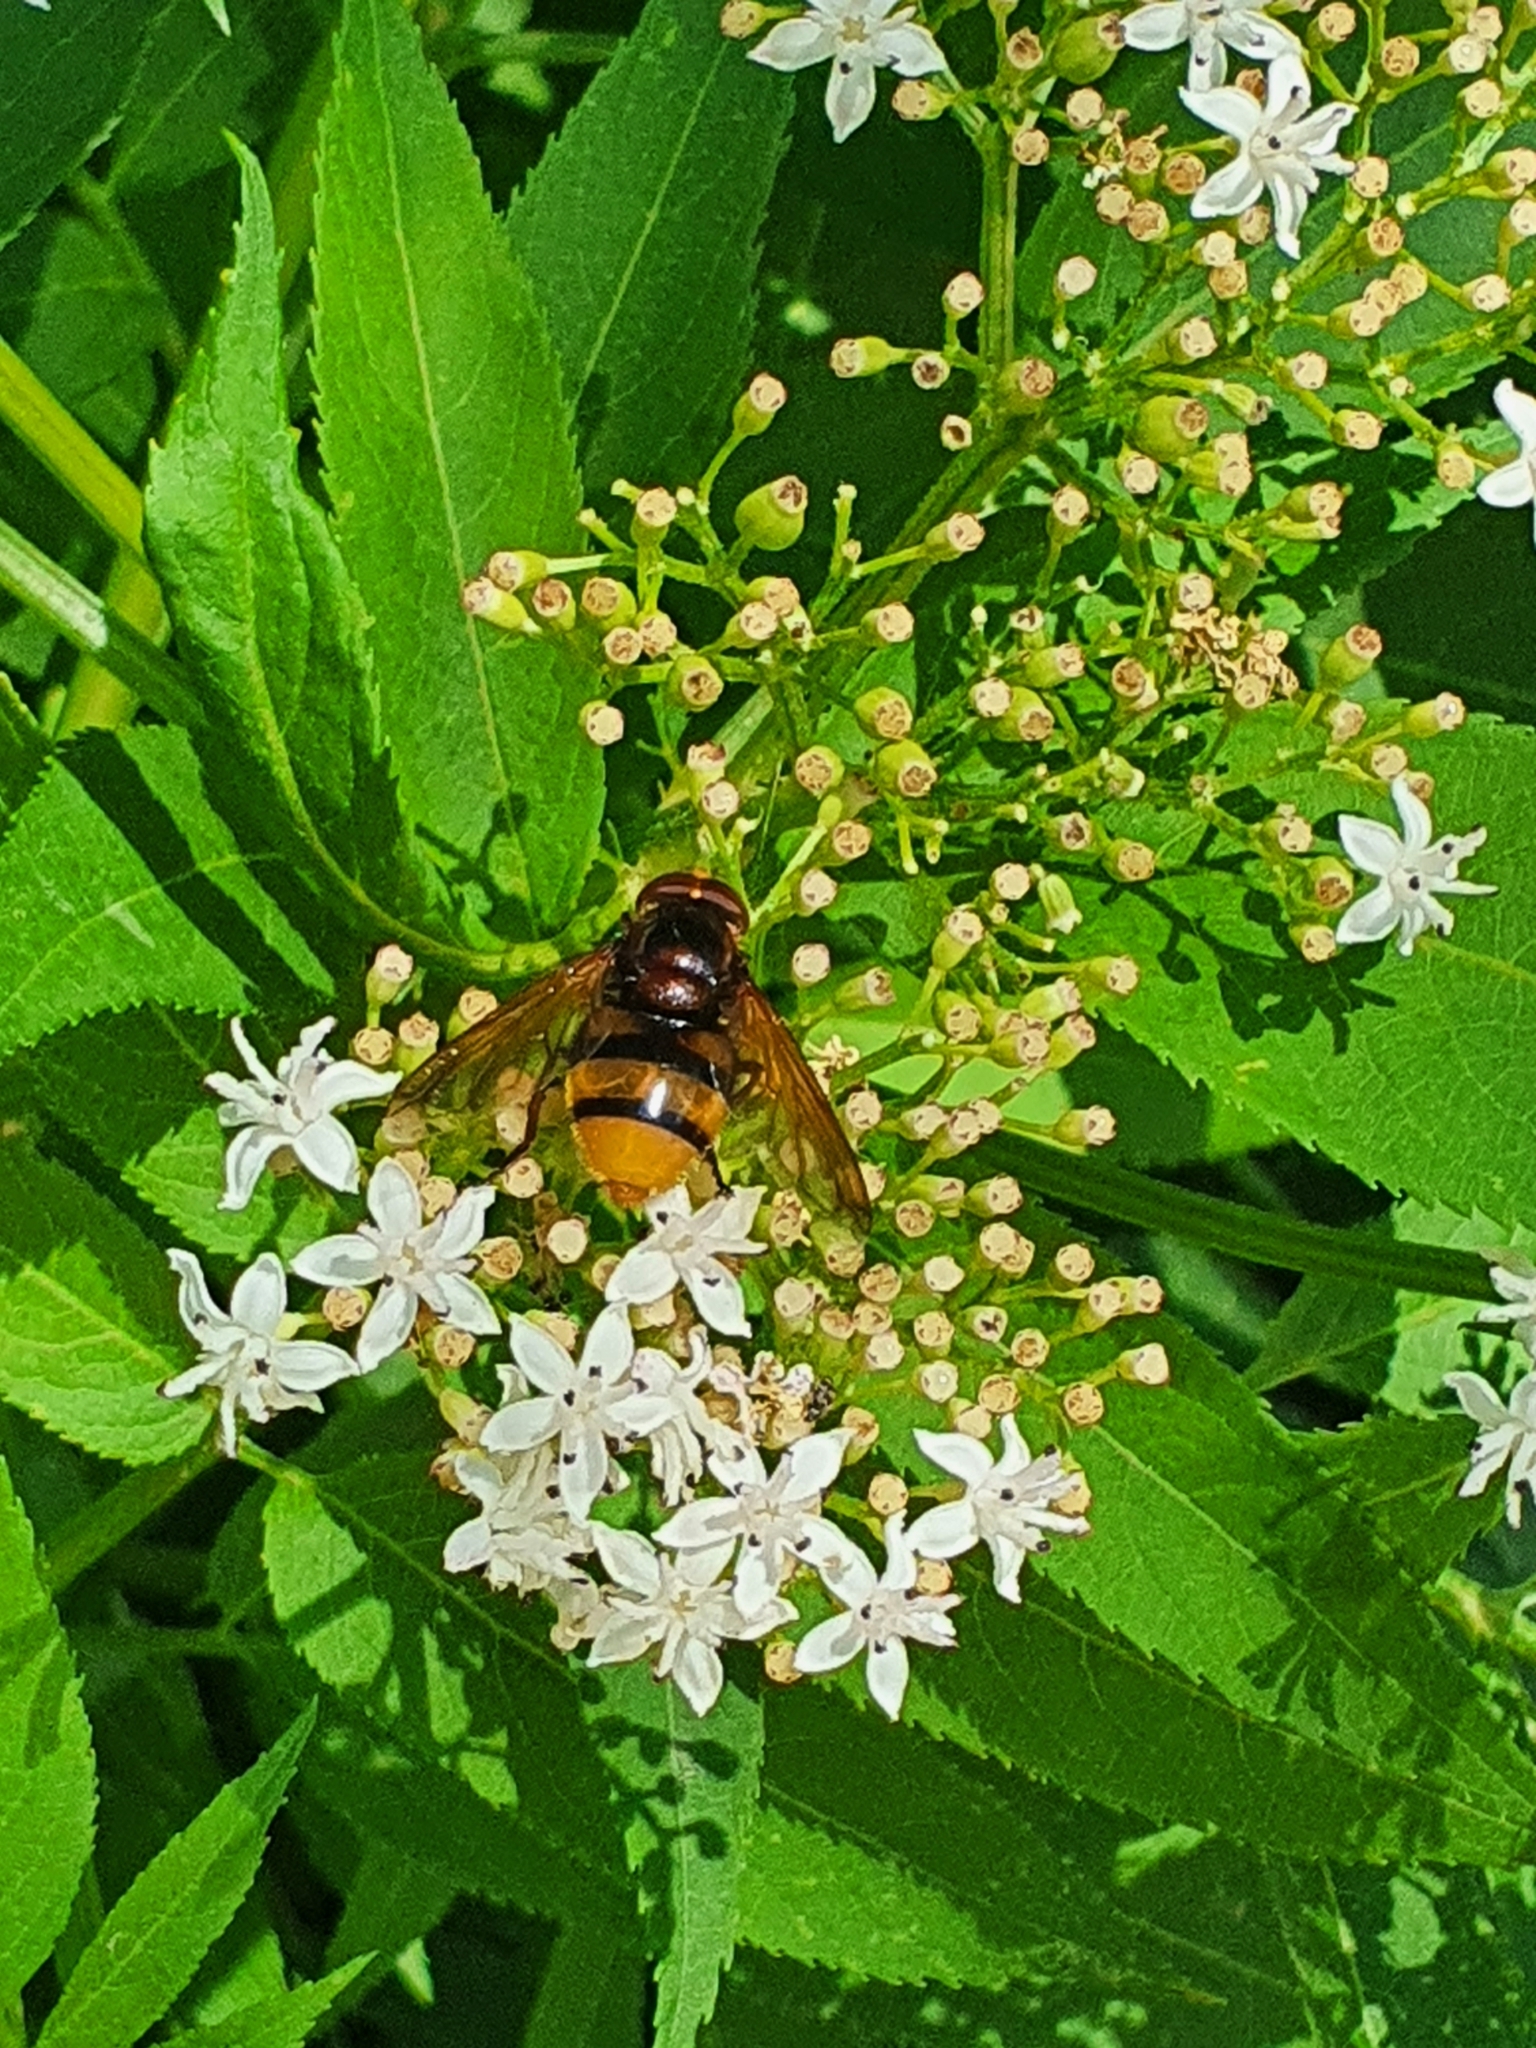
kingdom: Animalia
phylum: Arthropoda
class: Insecta
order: Diptera
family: Syrphidae
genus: Volucella
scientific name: Volucella zonaria
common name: Hornet hoverfly
